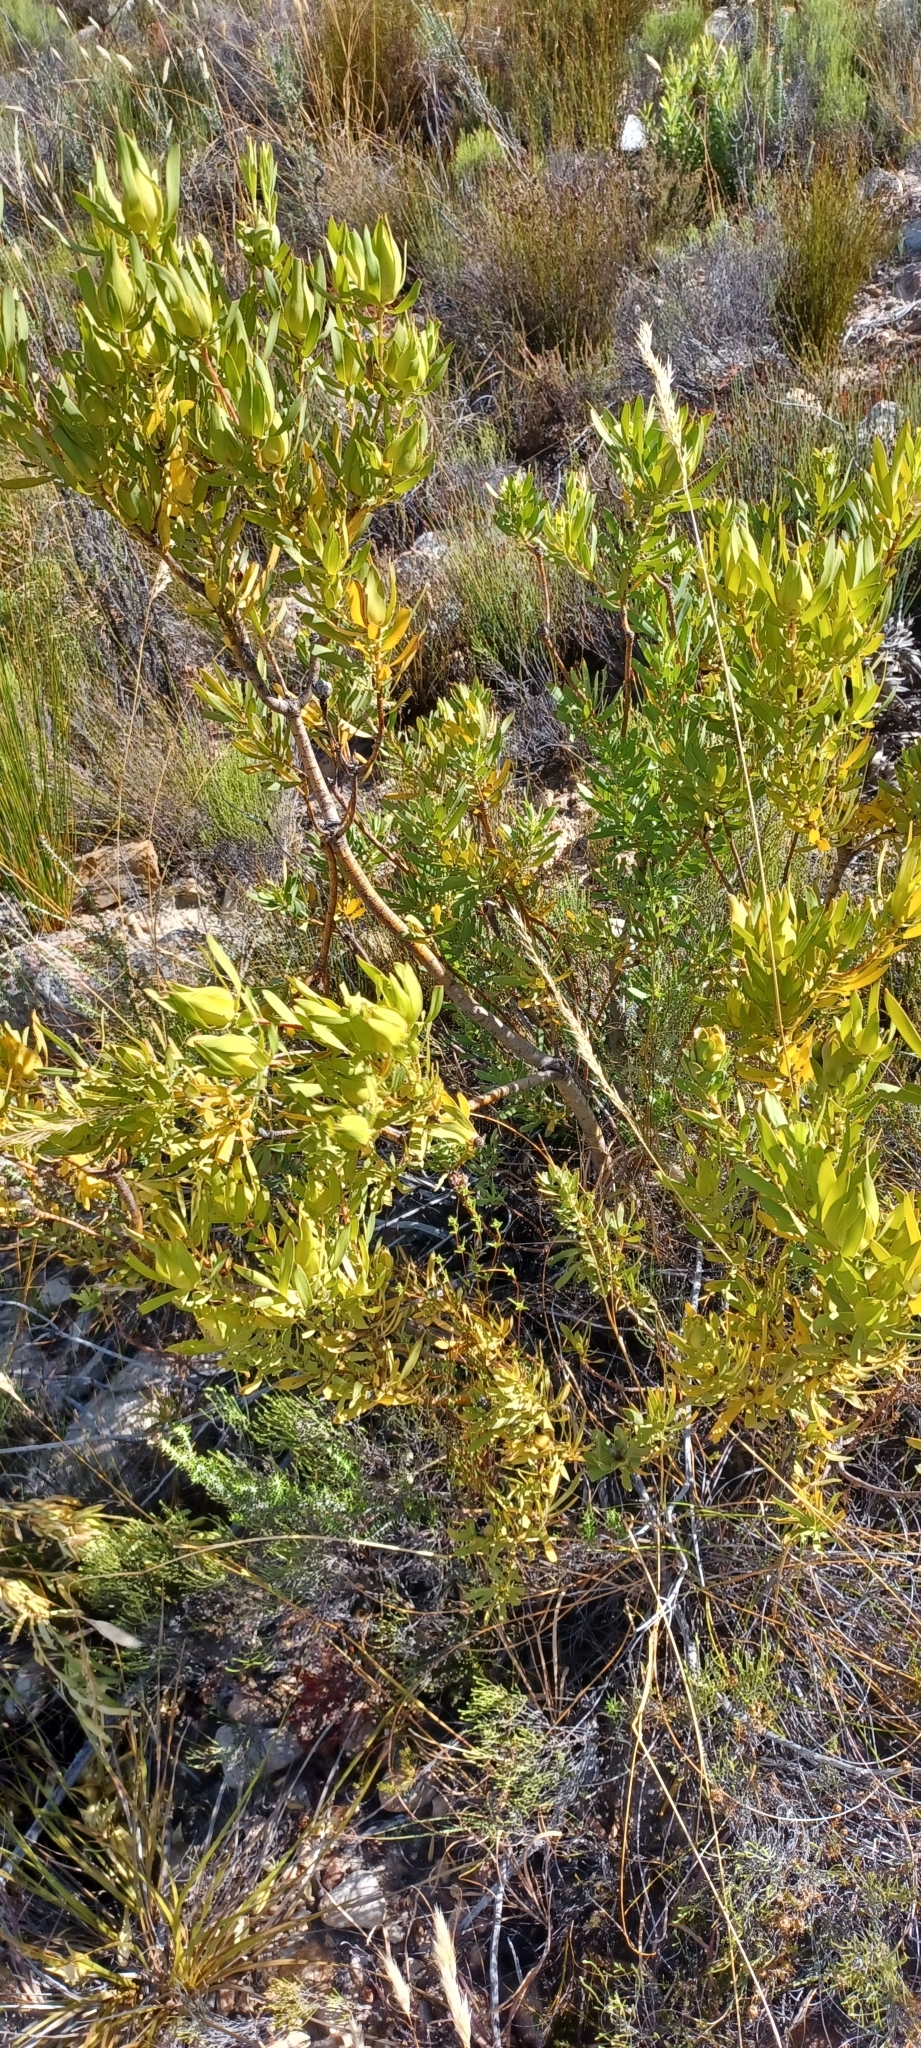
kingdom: Plantae
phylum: Tracheophyta
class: Magnoliopsida
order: Proteales
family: Proteaceae
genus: Leucadendron
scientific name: Leucadendron salignum
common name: Common sunshine conebush
